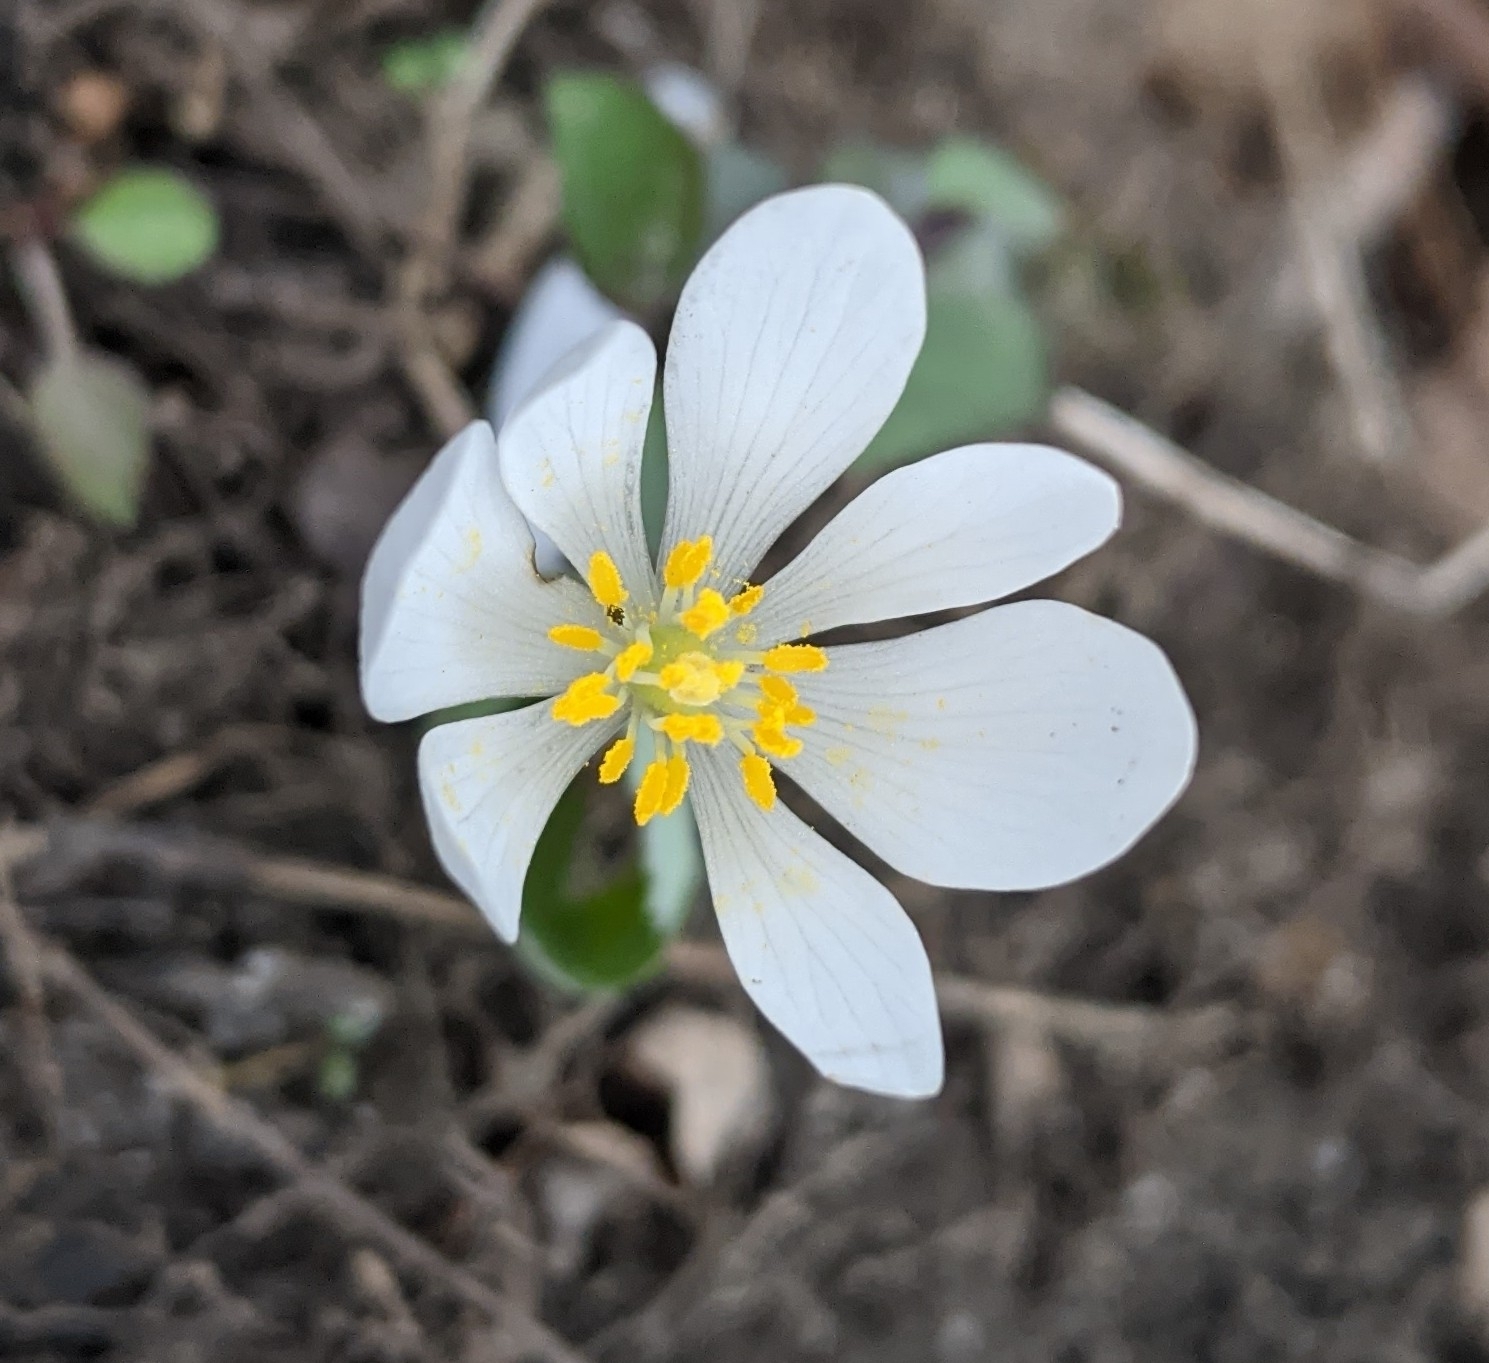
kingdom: Plantae
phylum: Tracheophyta
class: Magnoliopsida
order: Ranunculales
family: Papaveraceae
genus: Sanguinaria
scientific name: Sanguinaria canadensis
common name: Bloodroot
